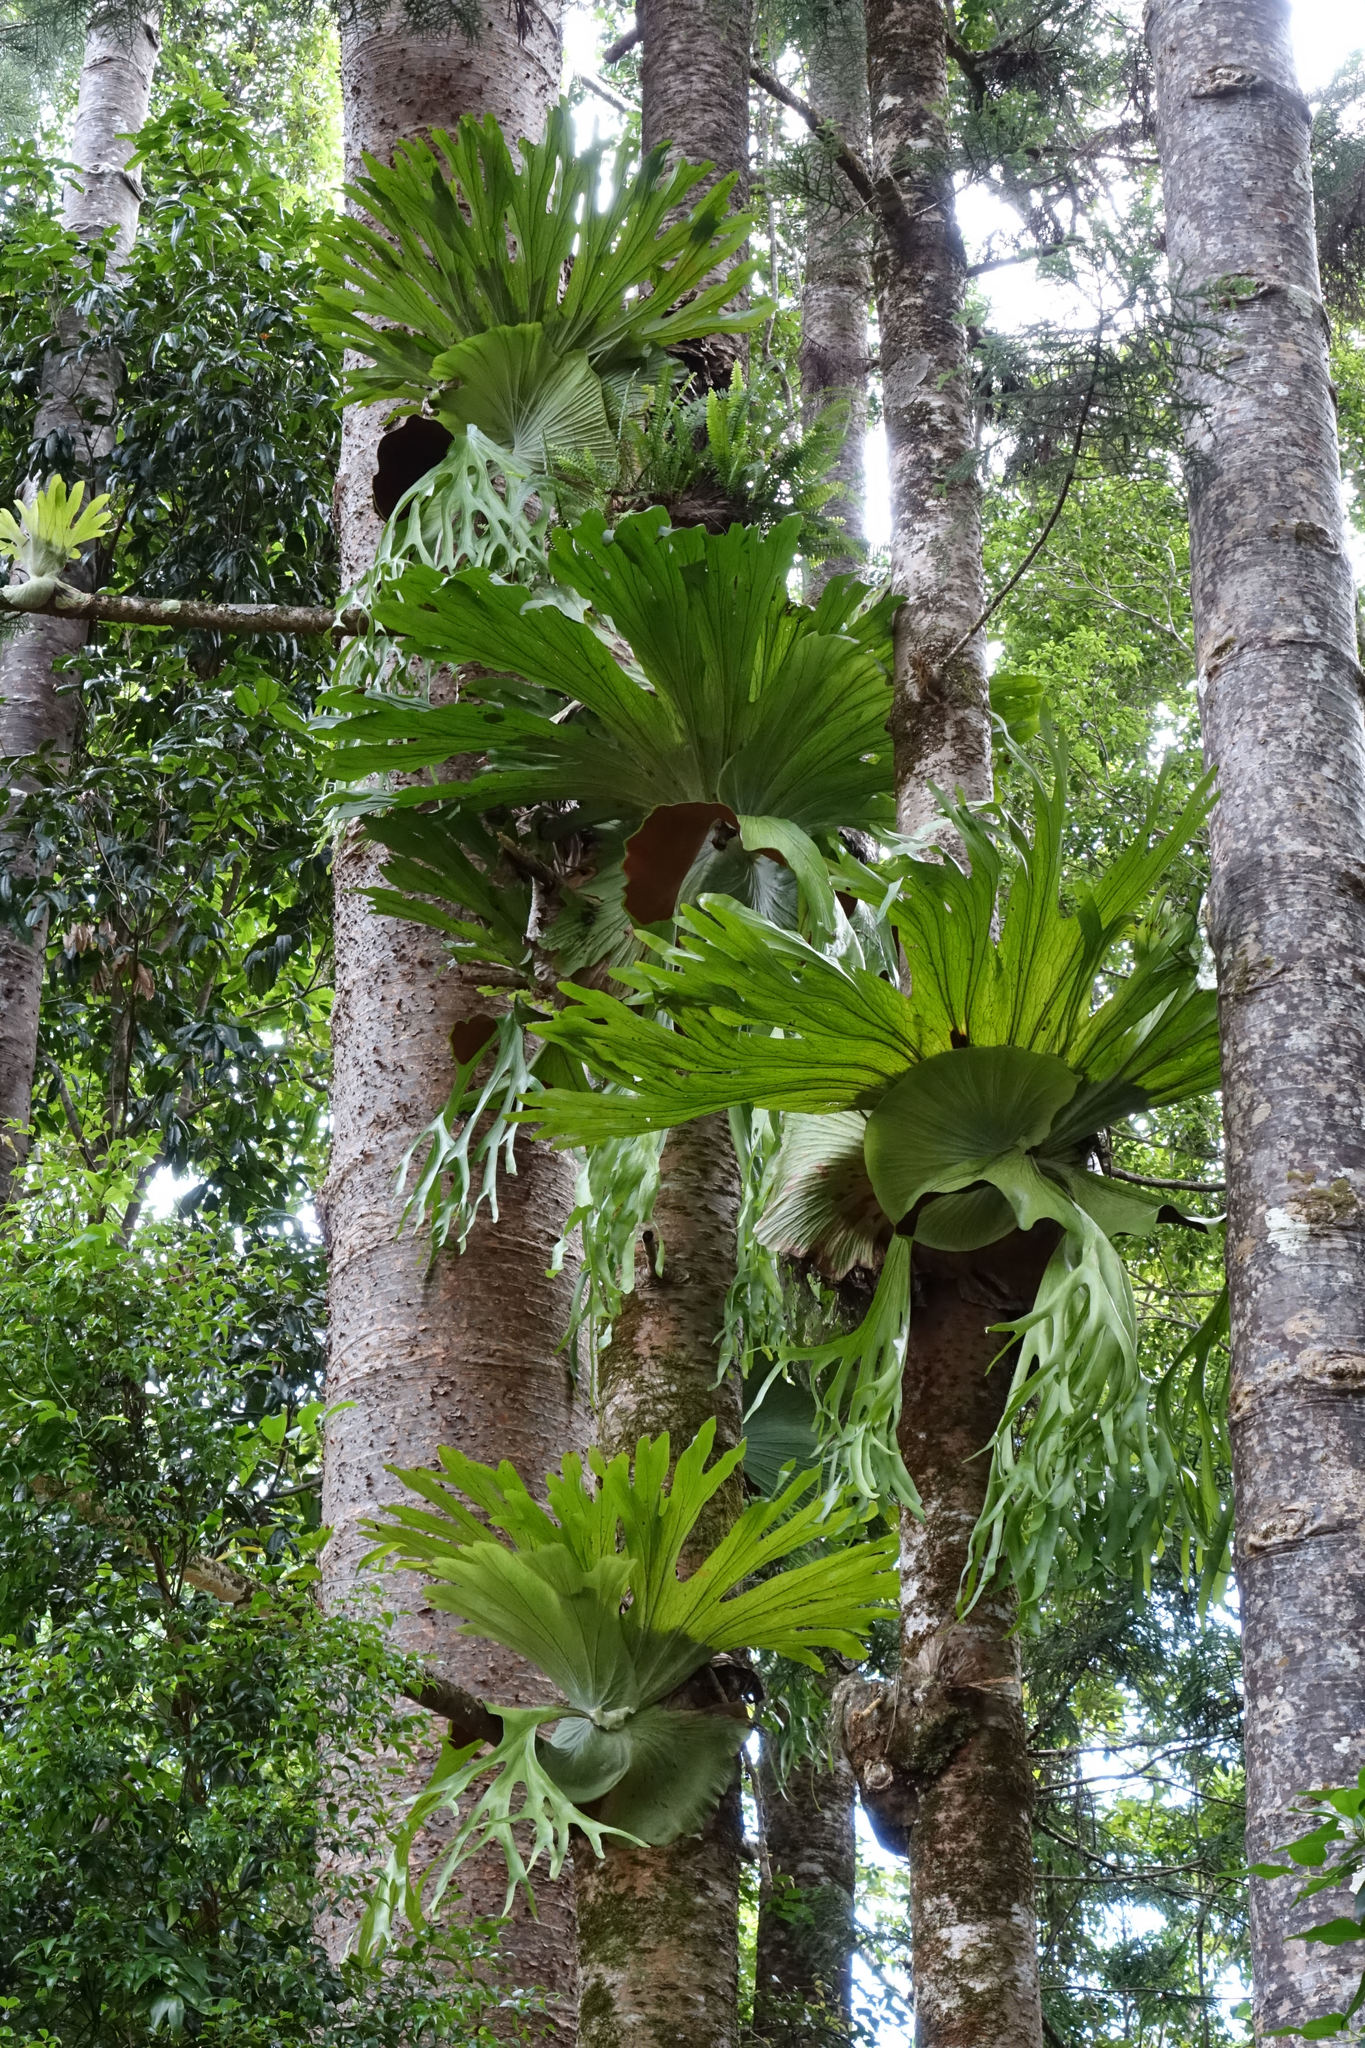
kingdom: Plantae
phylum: Tracheophyta
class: Polypodiopsida
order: Polypodiales
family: Polypodiaceae
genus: Platycerium
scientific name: Platycerium superbum
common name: Staghorn fern
